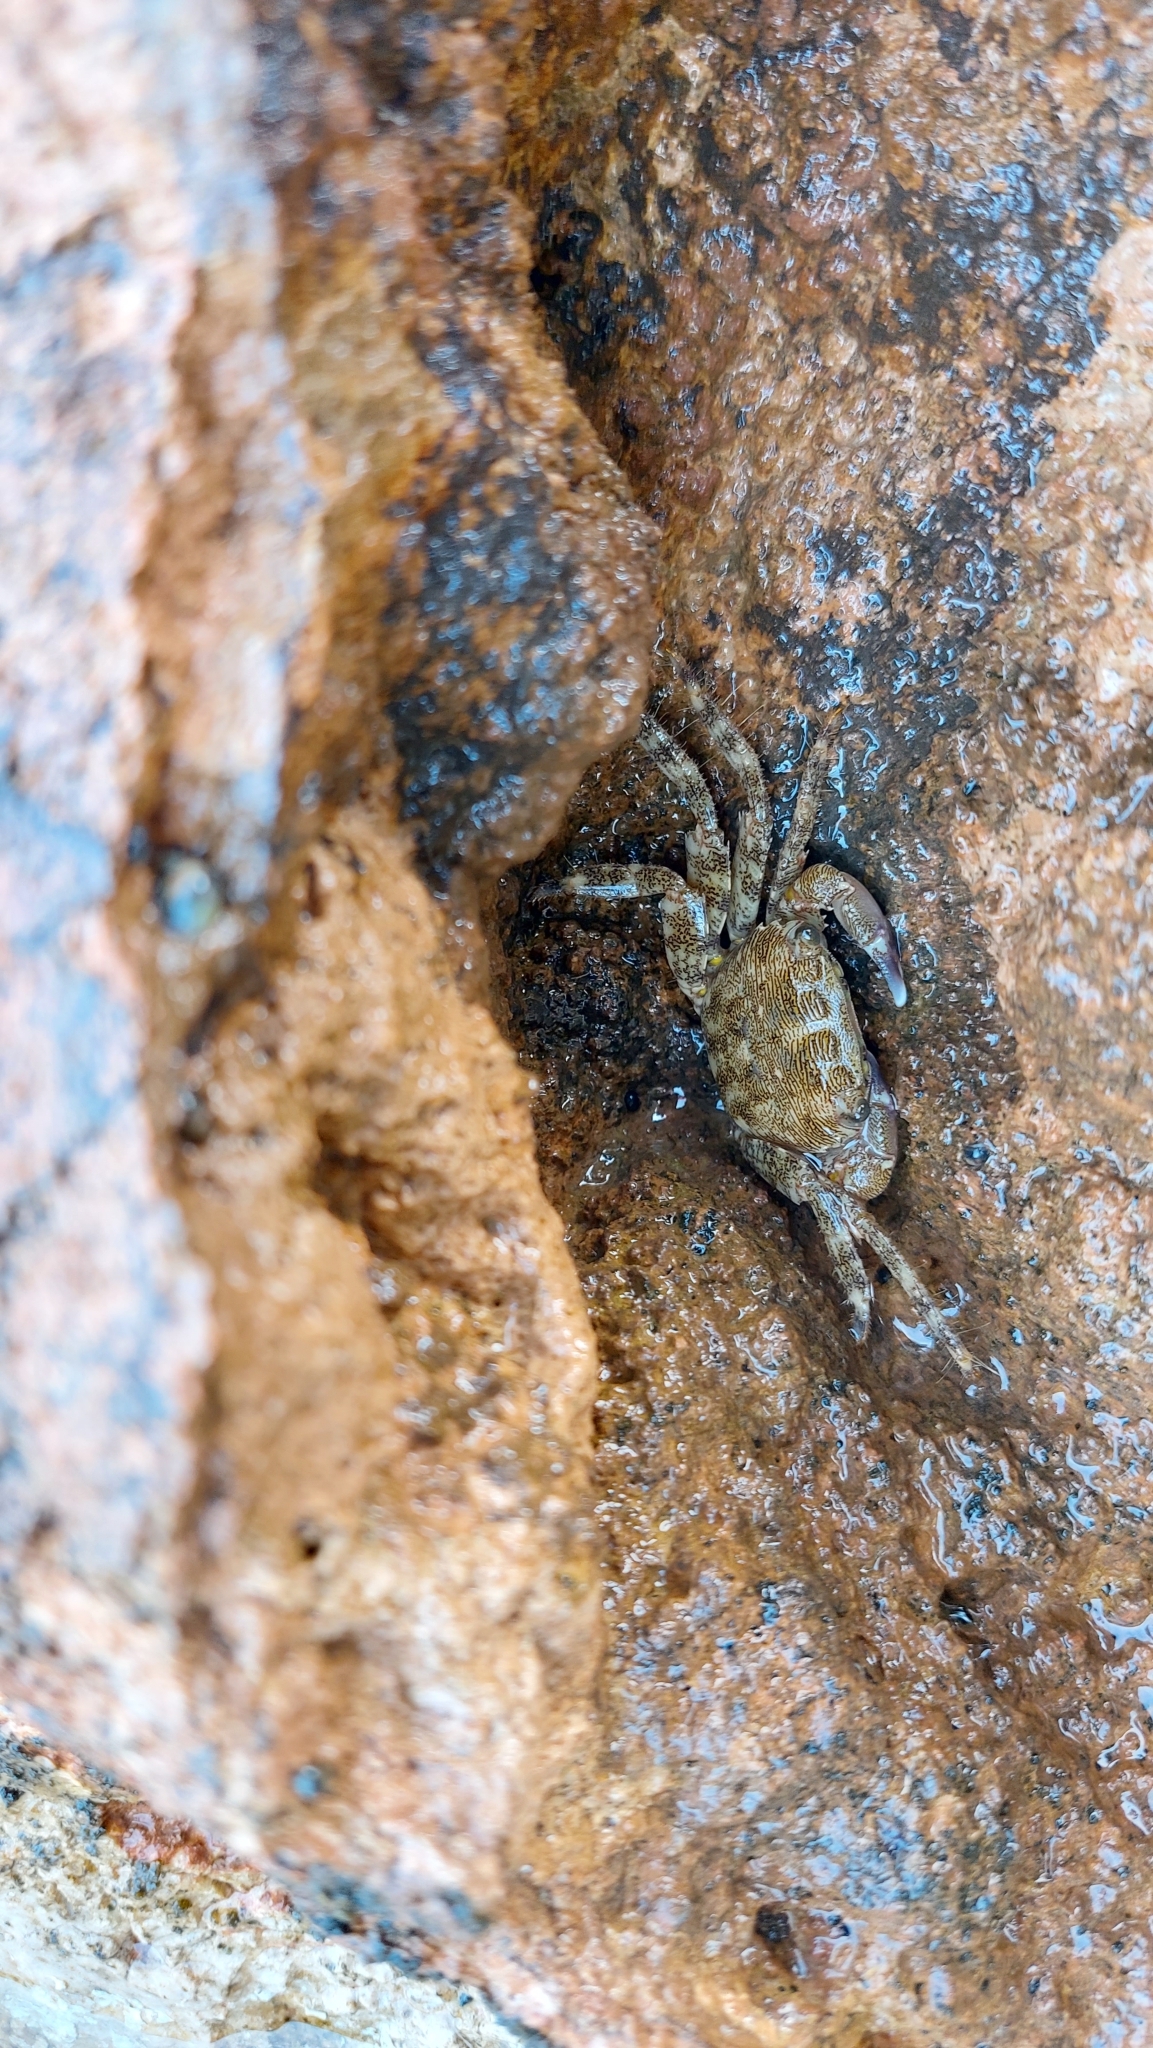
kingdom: Animalia
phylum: Arthropoda
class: Malacostraca
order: Decapoda
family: Grapsidae
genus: Pachygrapsus
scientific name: Pachygrapsus marmoratus
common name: Marbled rock crab
